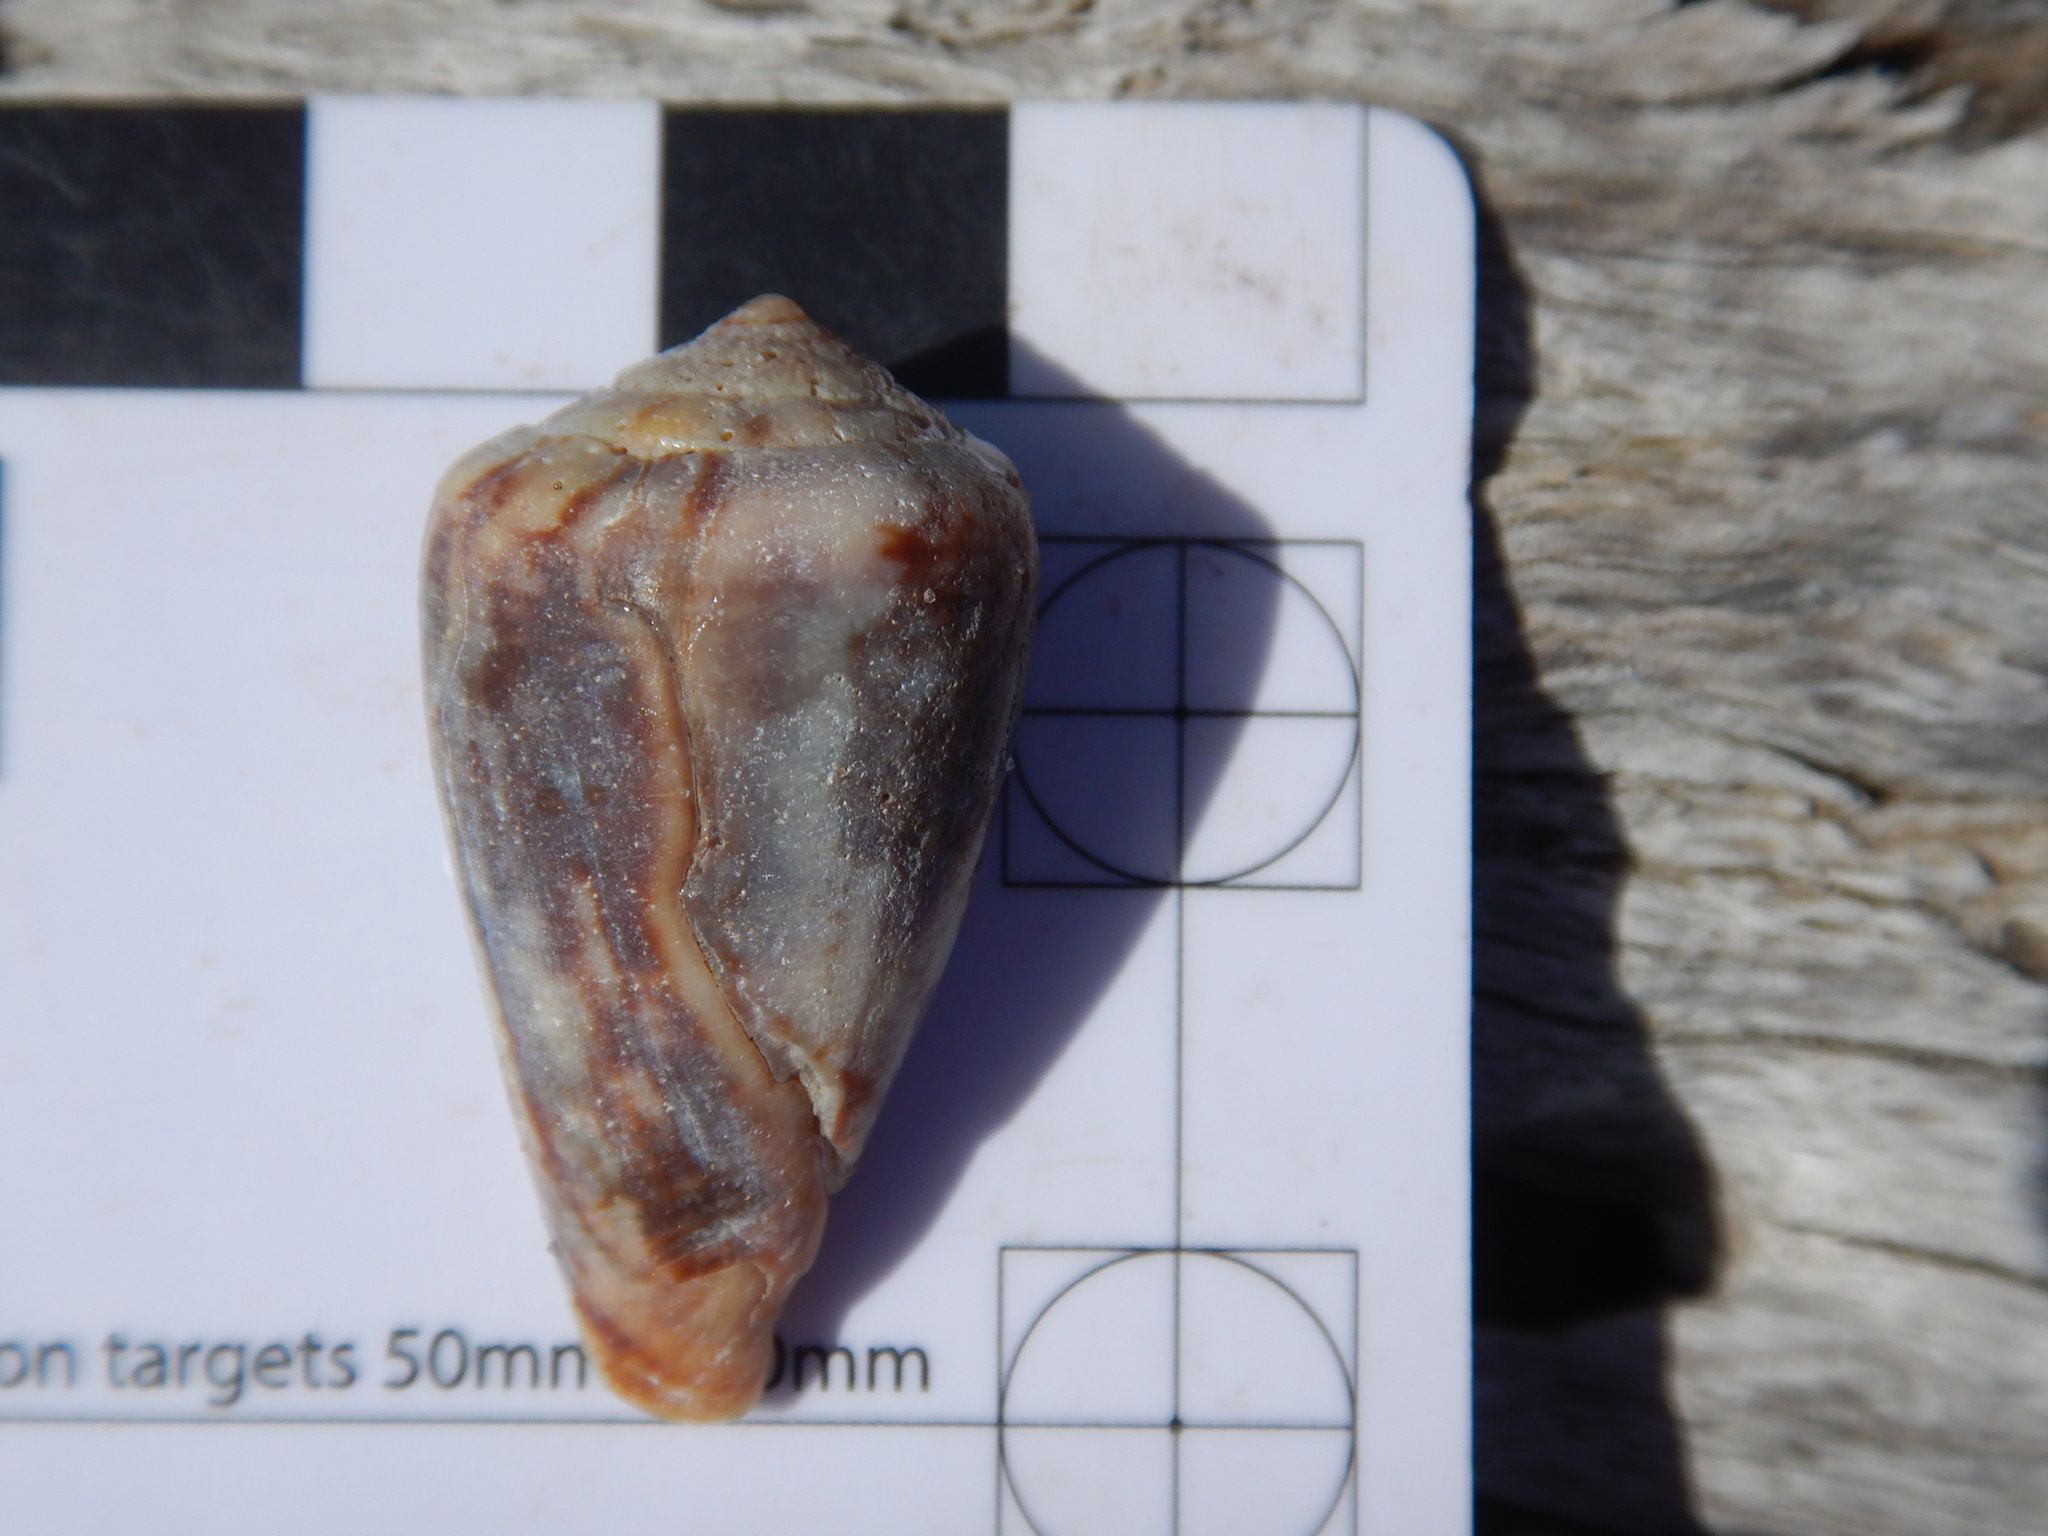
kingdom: Animalia
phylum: Mollusca
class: Gastropoda
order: Neogastropoda
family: Conidae
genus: Conus
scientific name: Conus anemone
